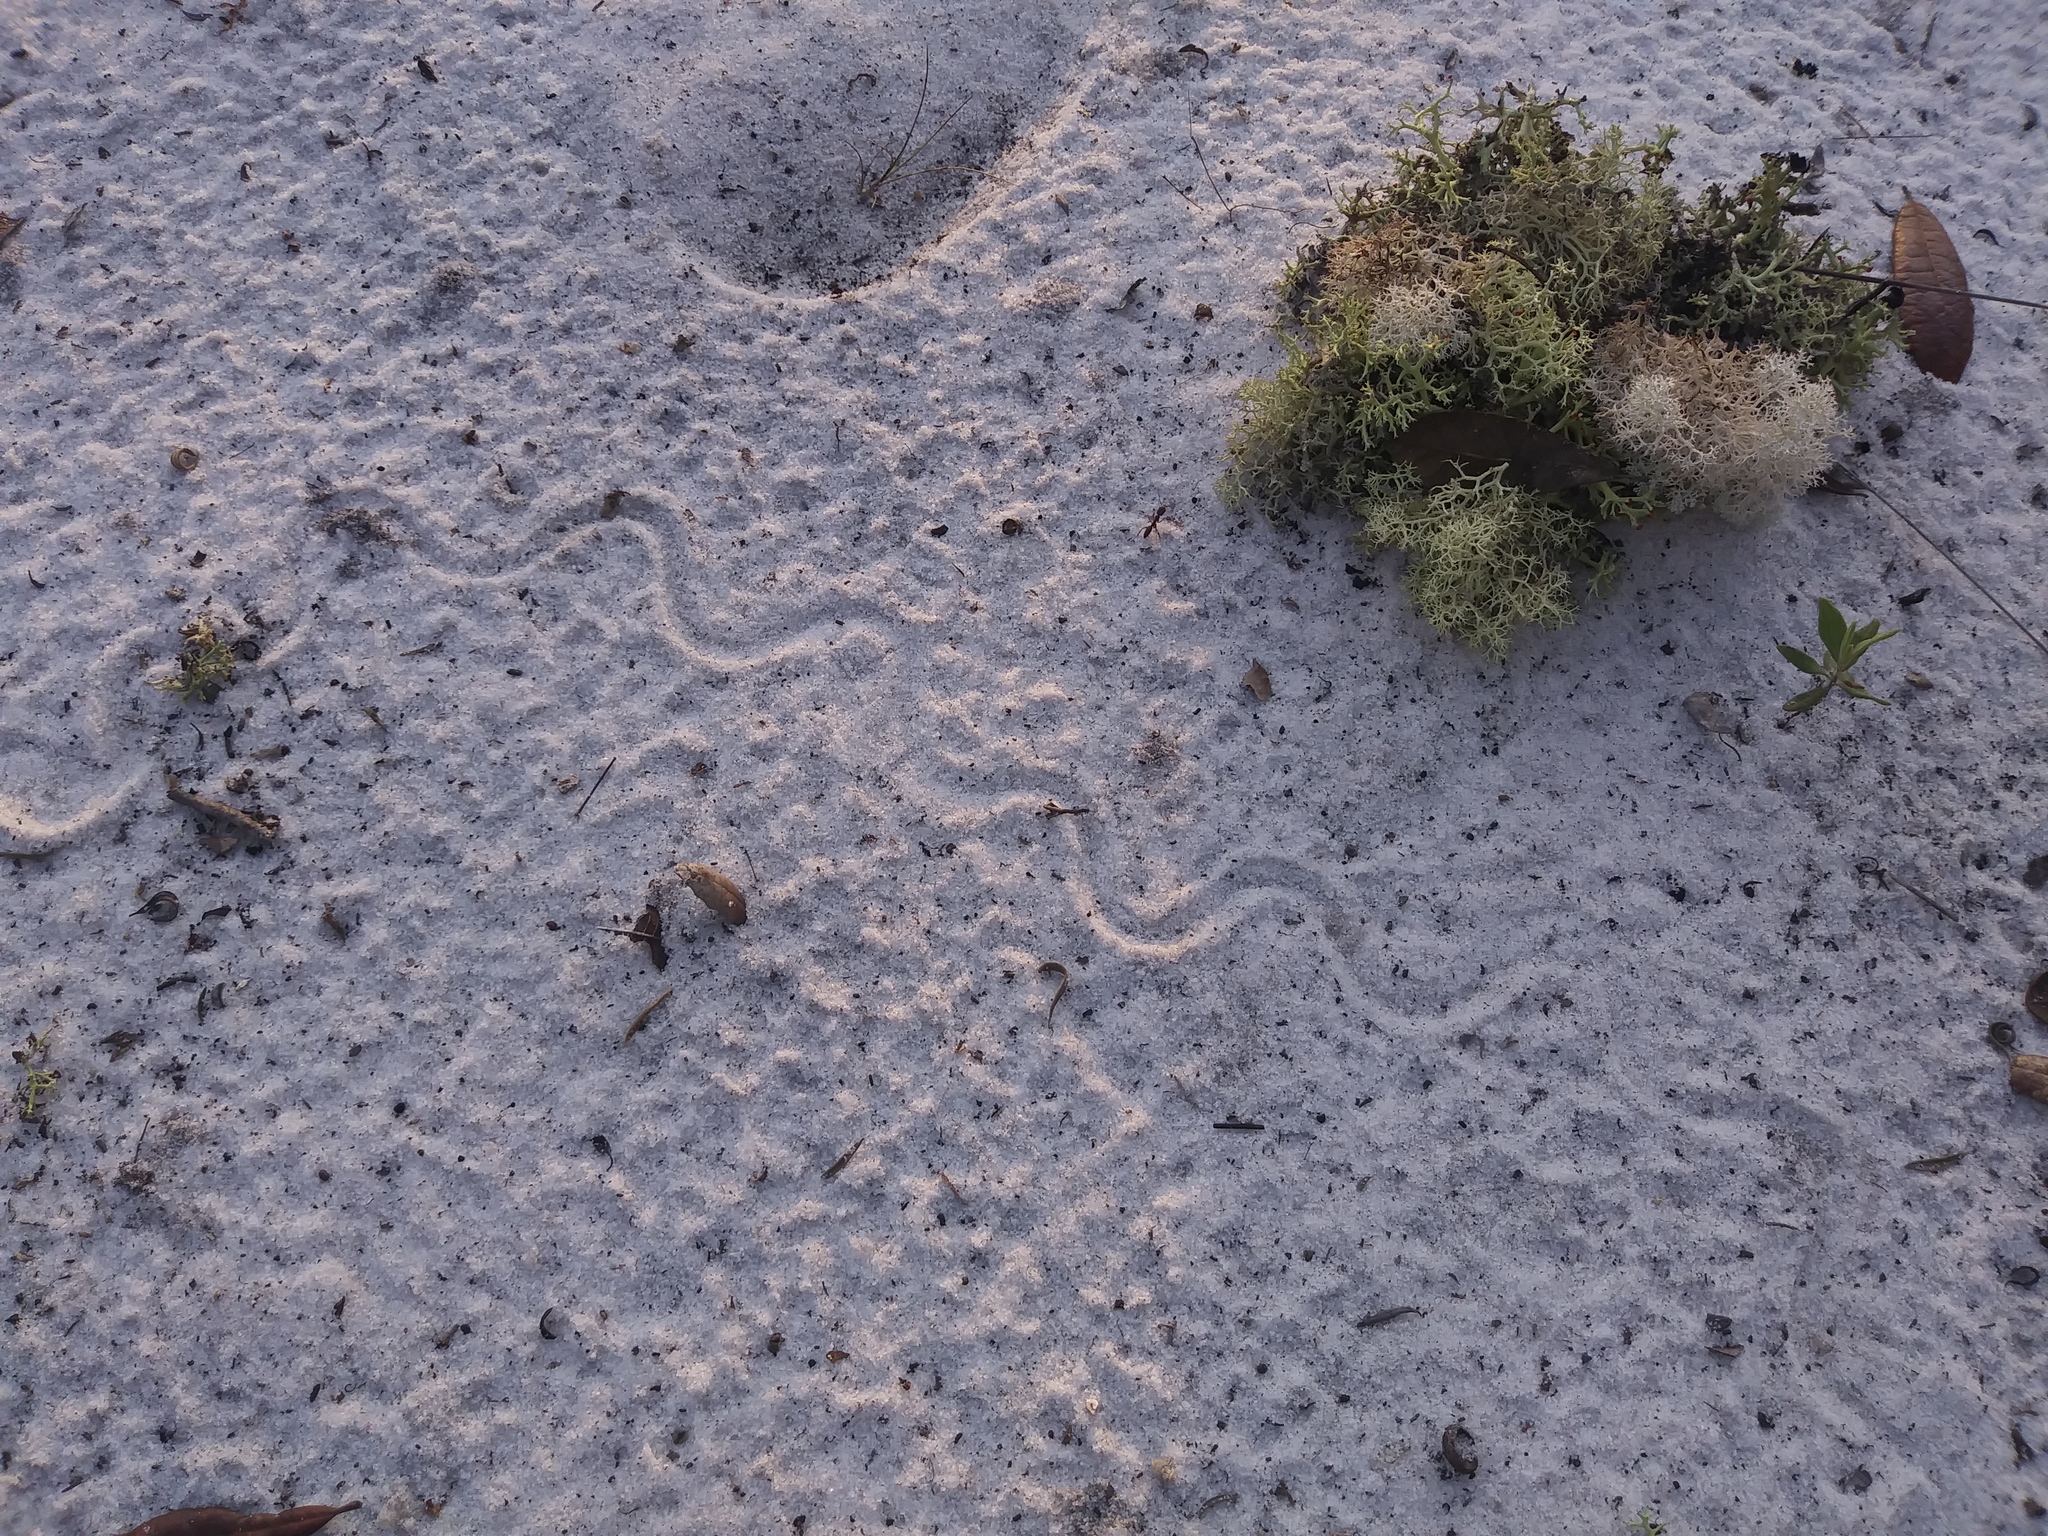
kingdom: Animalia
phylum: Chordata
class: Squamata
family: Scincidae
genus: Plestiodon
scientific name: Plestiodon reynoldsi
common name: Florida sand skink
